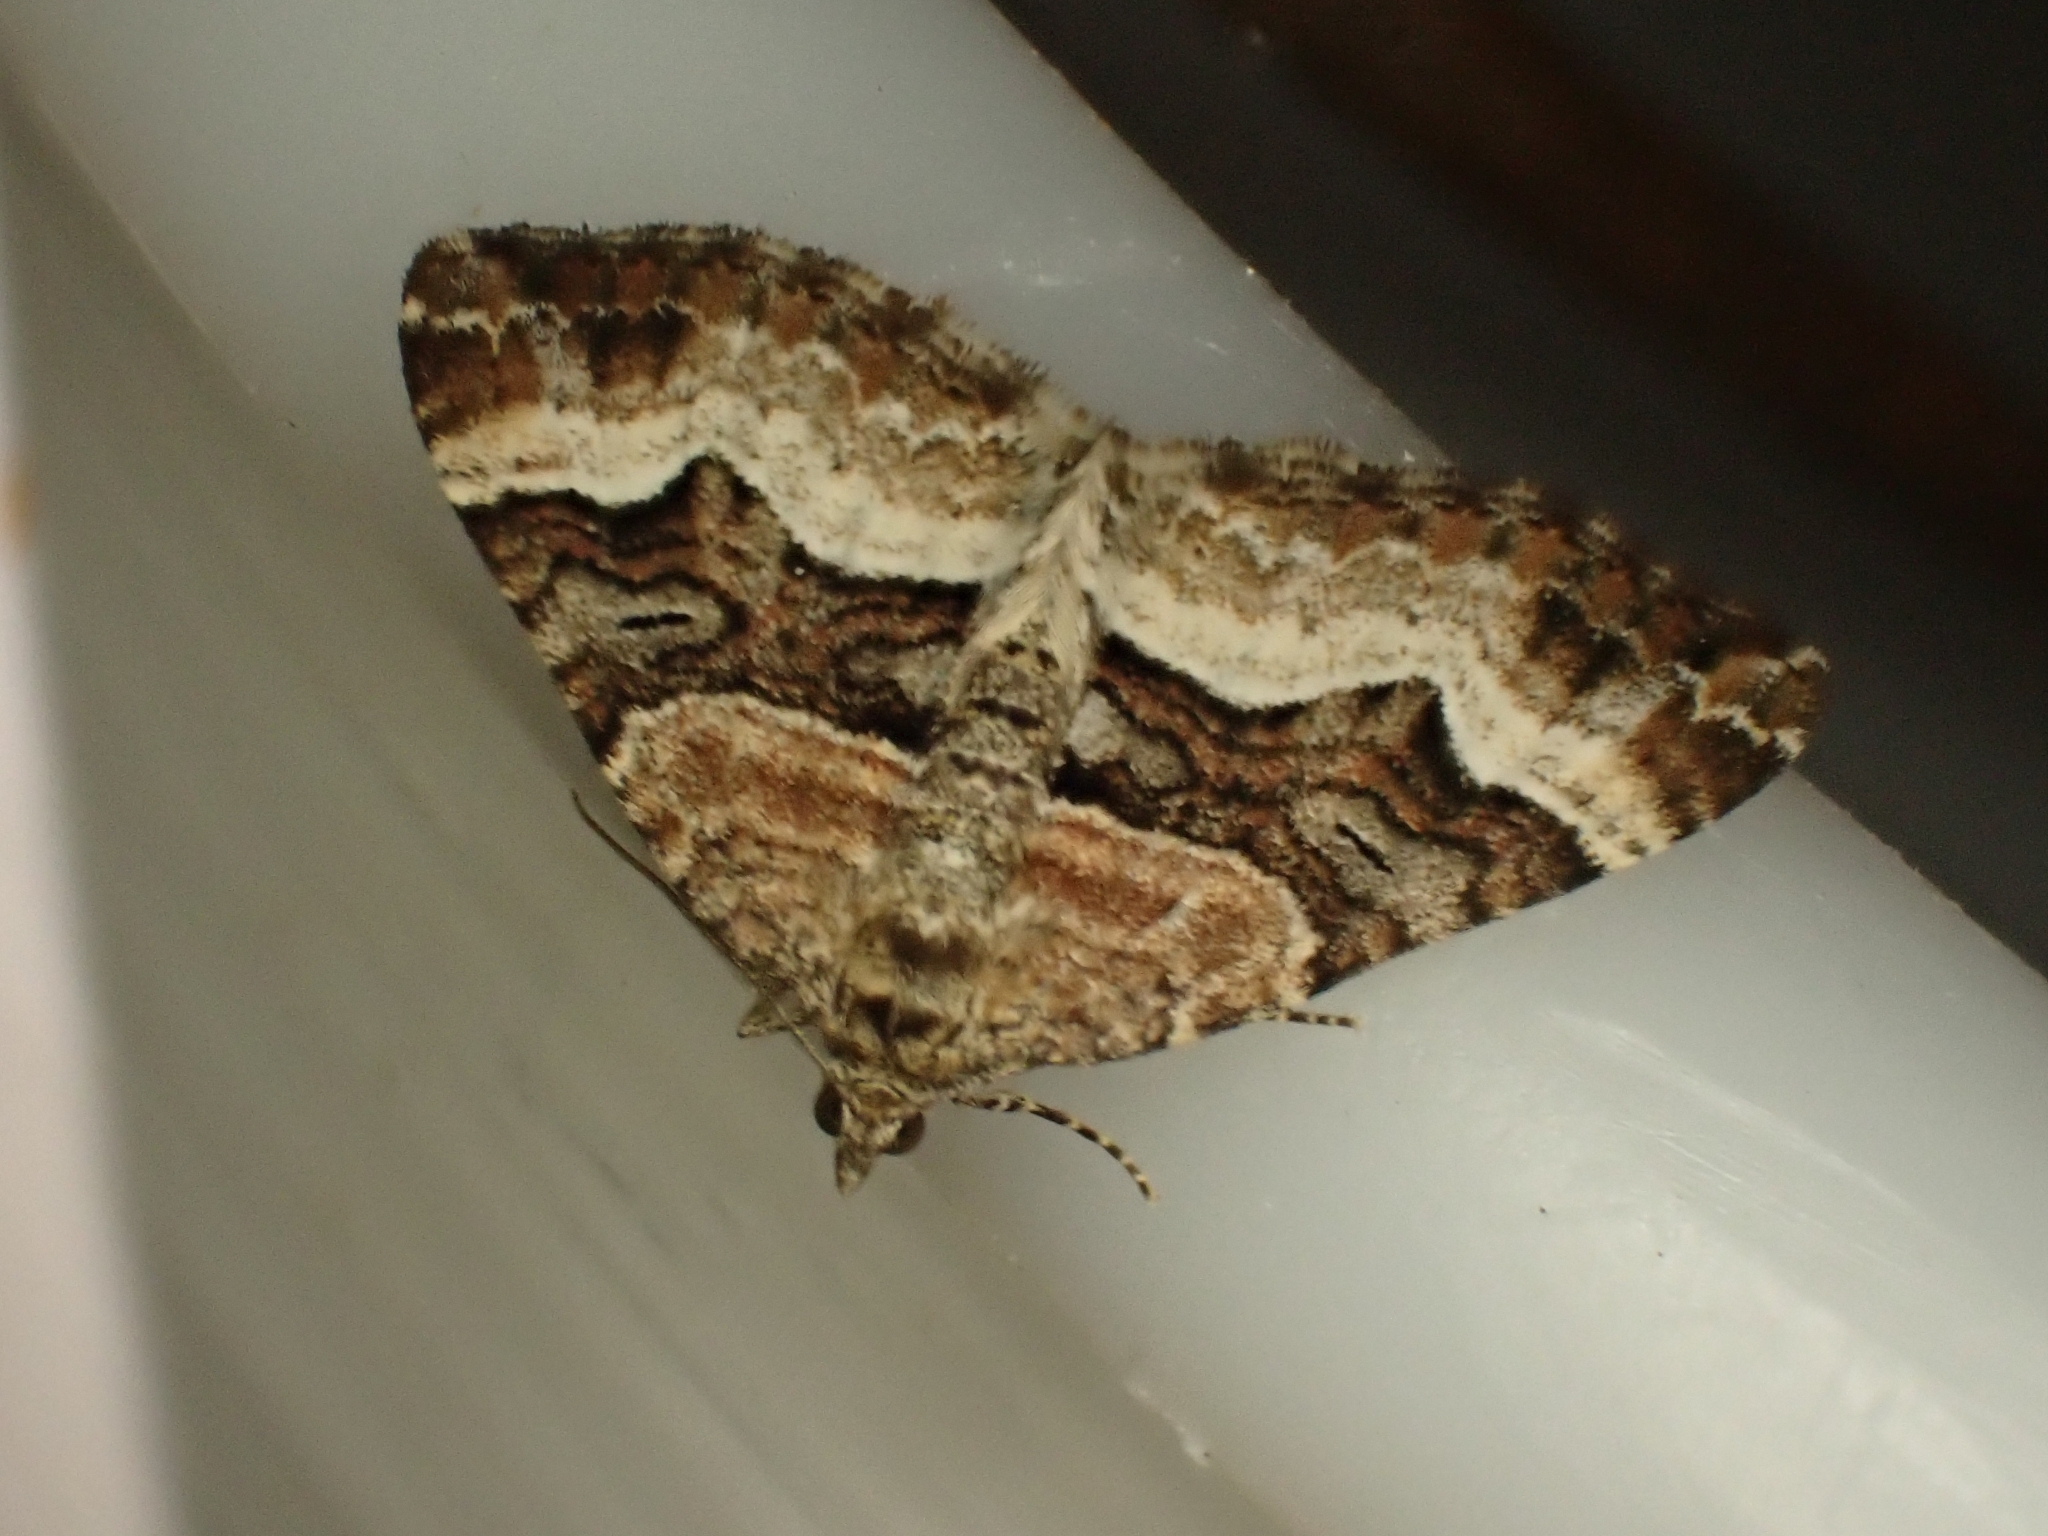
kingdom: Animalia
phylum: Arthropoda
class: Insecta
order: Lepidoptera
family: Geometridae
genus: Xanthorhoe
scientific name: Xanthorhoe biriviata
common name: Balsam carpet
